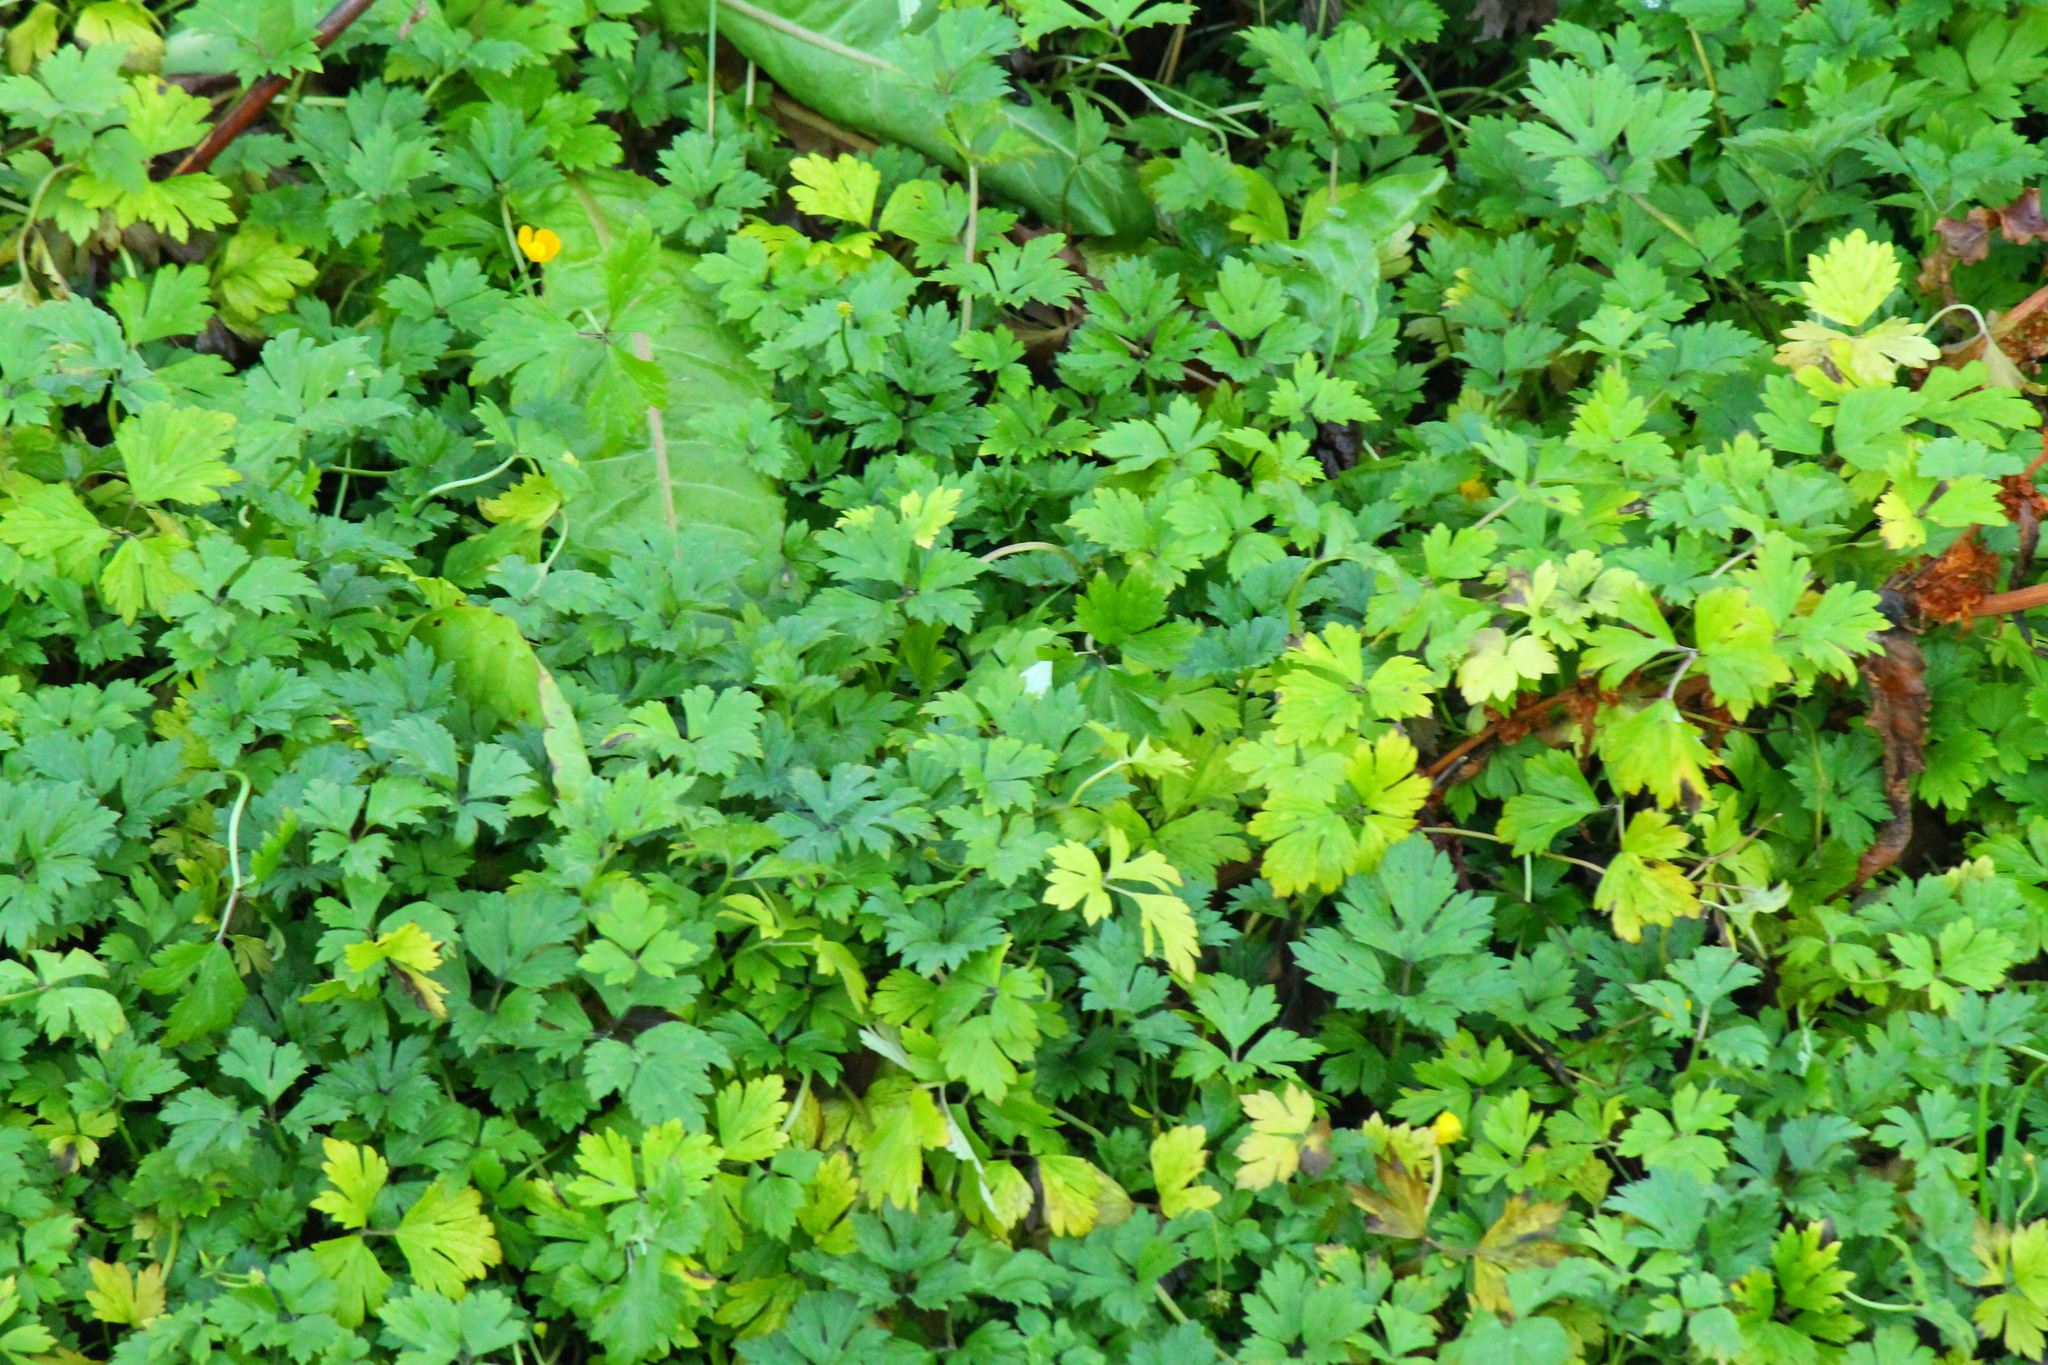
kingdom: Plantae
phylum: Tracheophyta
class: Magnoliopsida
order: Ranunculales
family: Ranunculaceae
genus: Ranunculus
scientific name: Ranunculus repens
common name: Creeping buttercup
